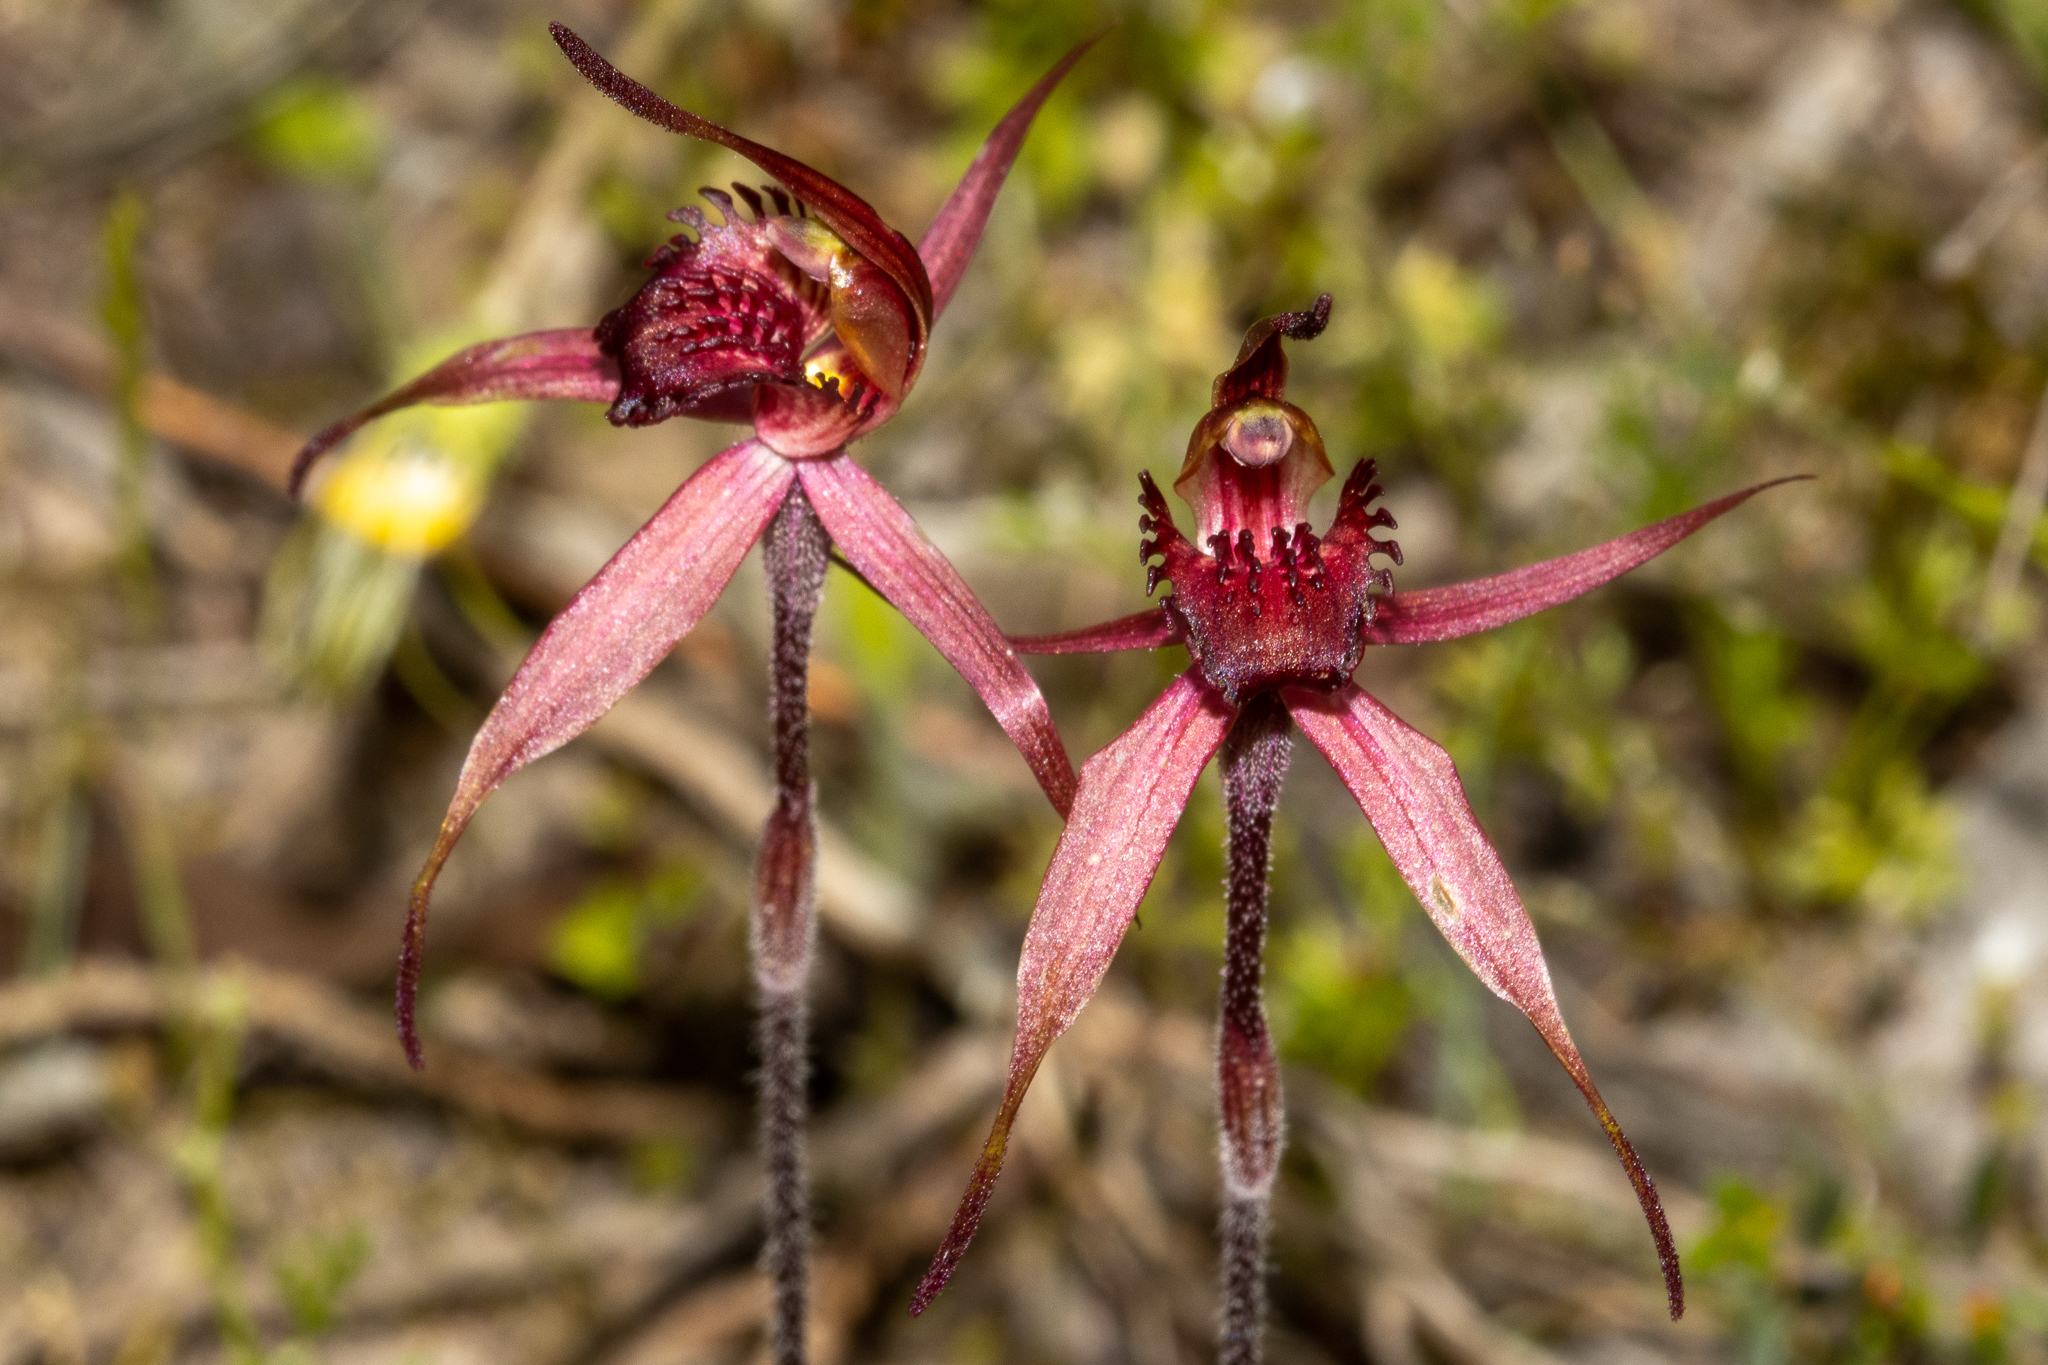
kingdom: Plantae
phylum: Tracheophyta
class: Liliopsida
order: Asparagales
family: Orchidaceae
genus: Caladenia
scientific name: Caladenia cruciformis
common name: Bordertown spider-orchid
